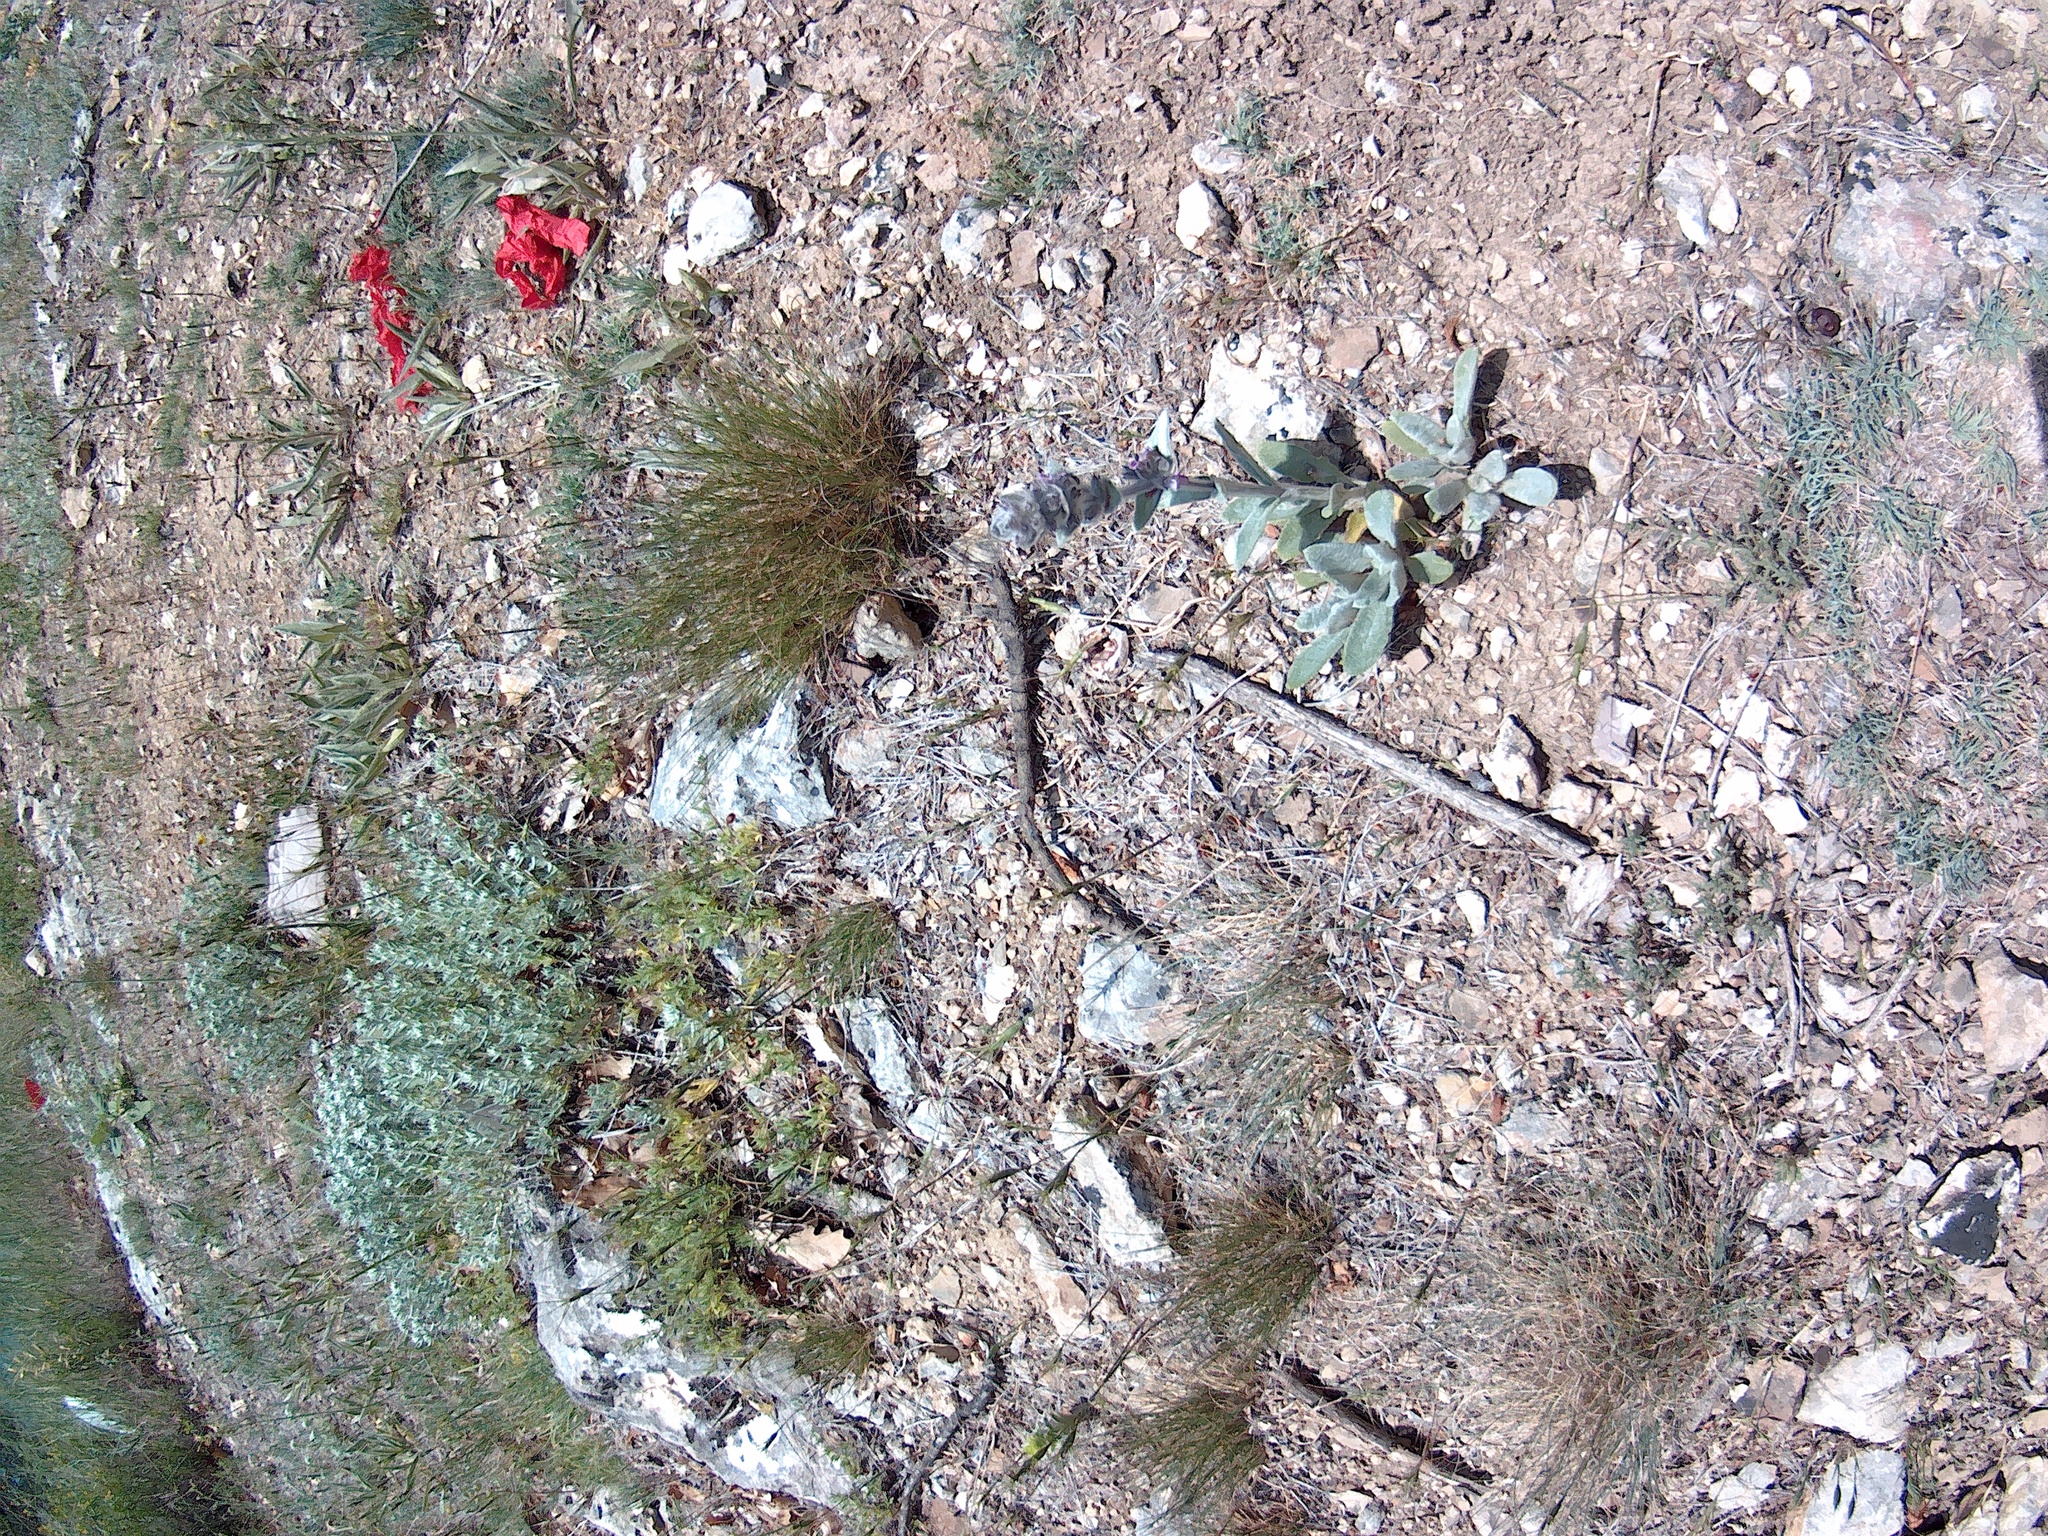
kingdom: Plantae
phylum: Tracheophyta
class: Magnoliopsida
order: Lamiales
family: Lamiaceae
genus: Stachys
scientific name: Stachys byzantina
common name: Lamb's-ear
